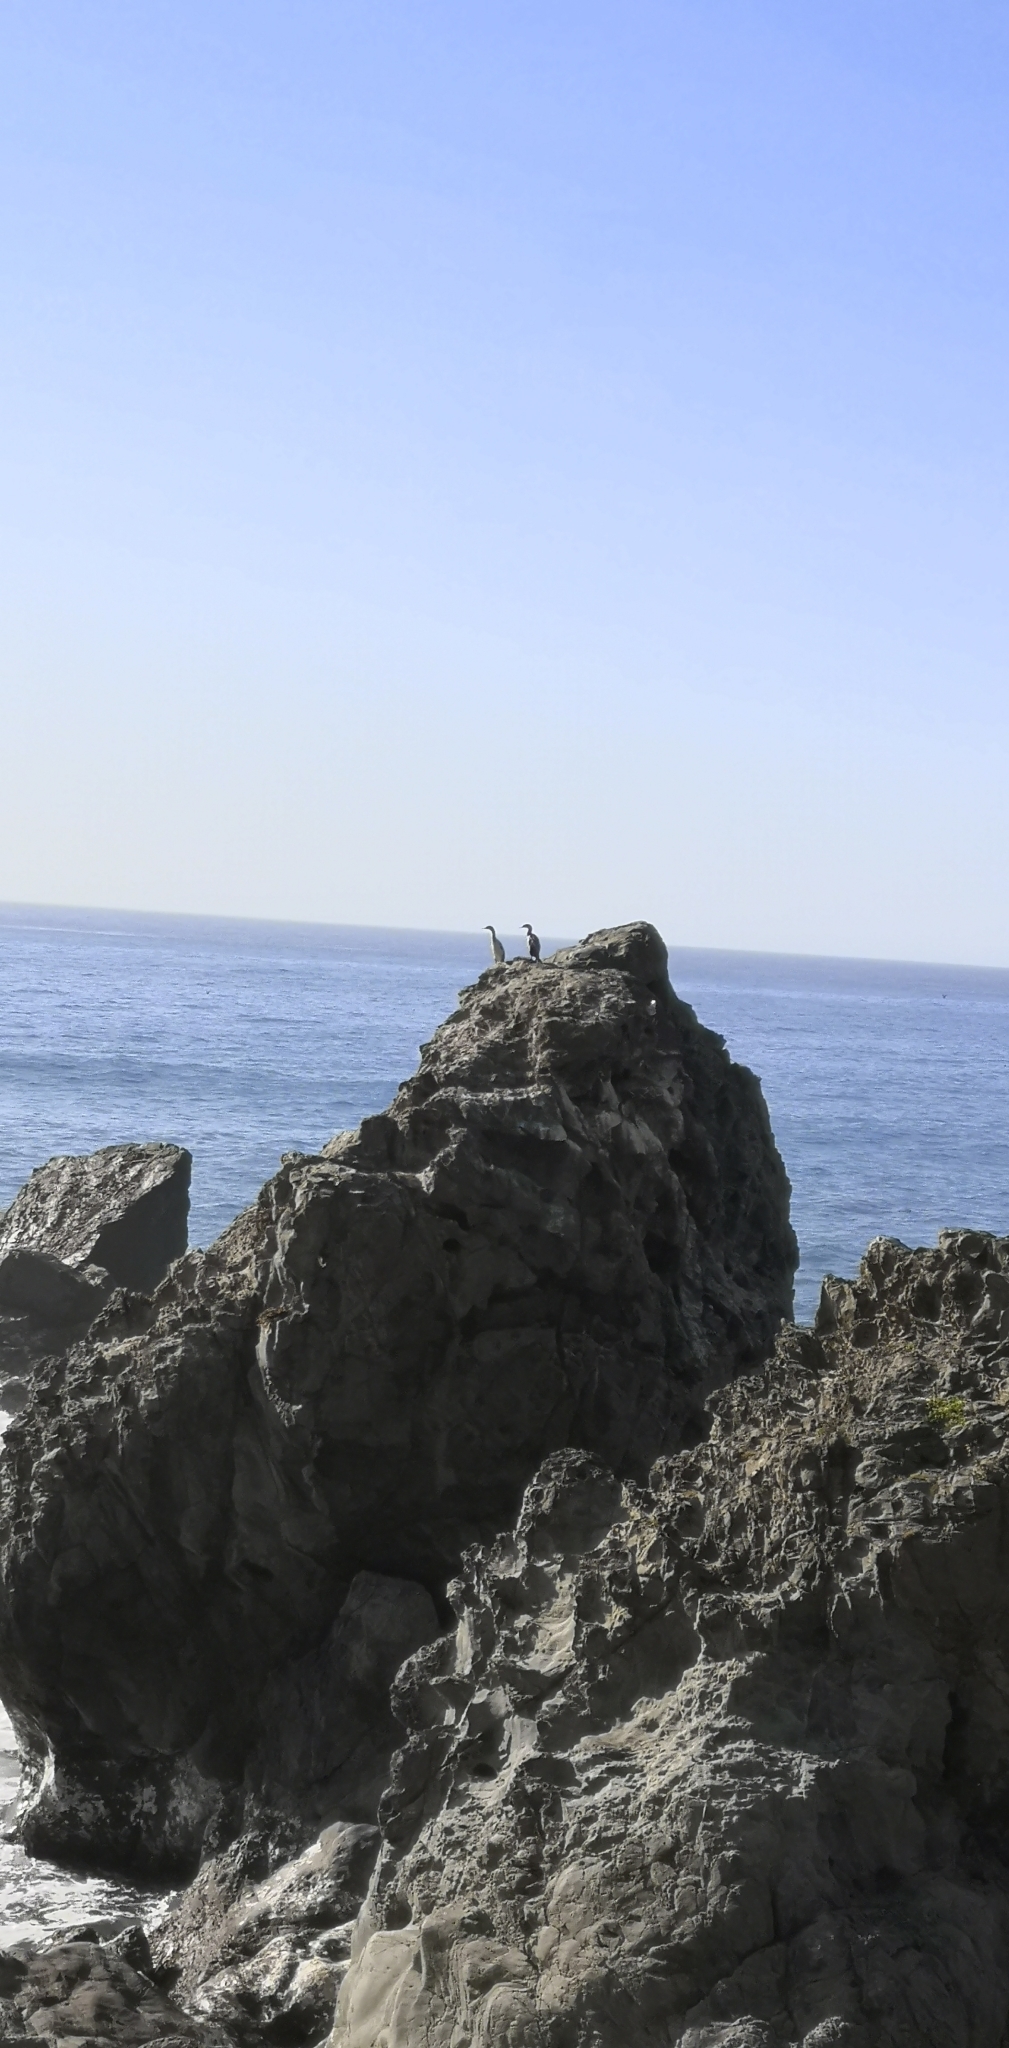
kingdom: Animalia
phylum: Chordata
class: Aves
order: Suliformes
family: Phalacrocoracidae
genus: Phalacrocorax
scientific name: Phalacrocorax punctatus
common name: Spotted shag
